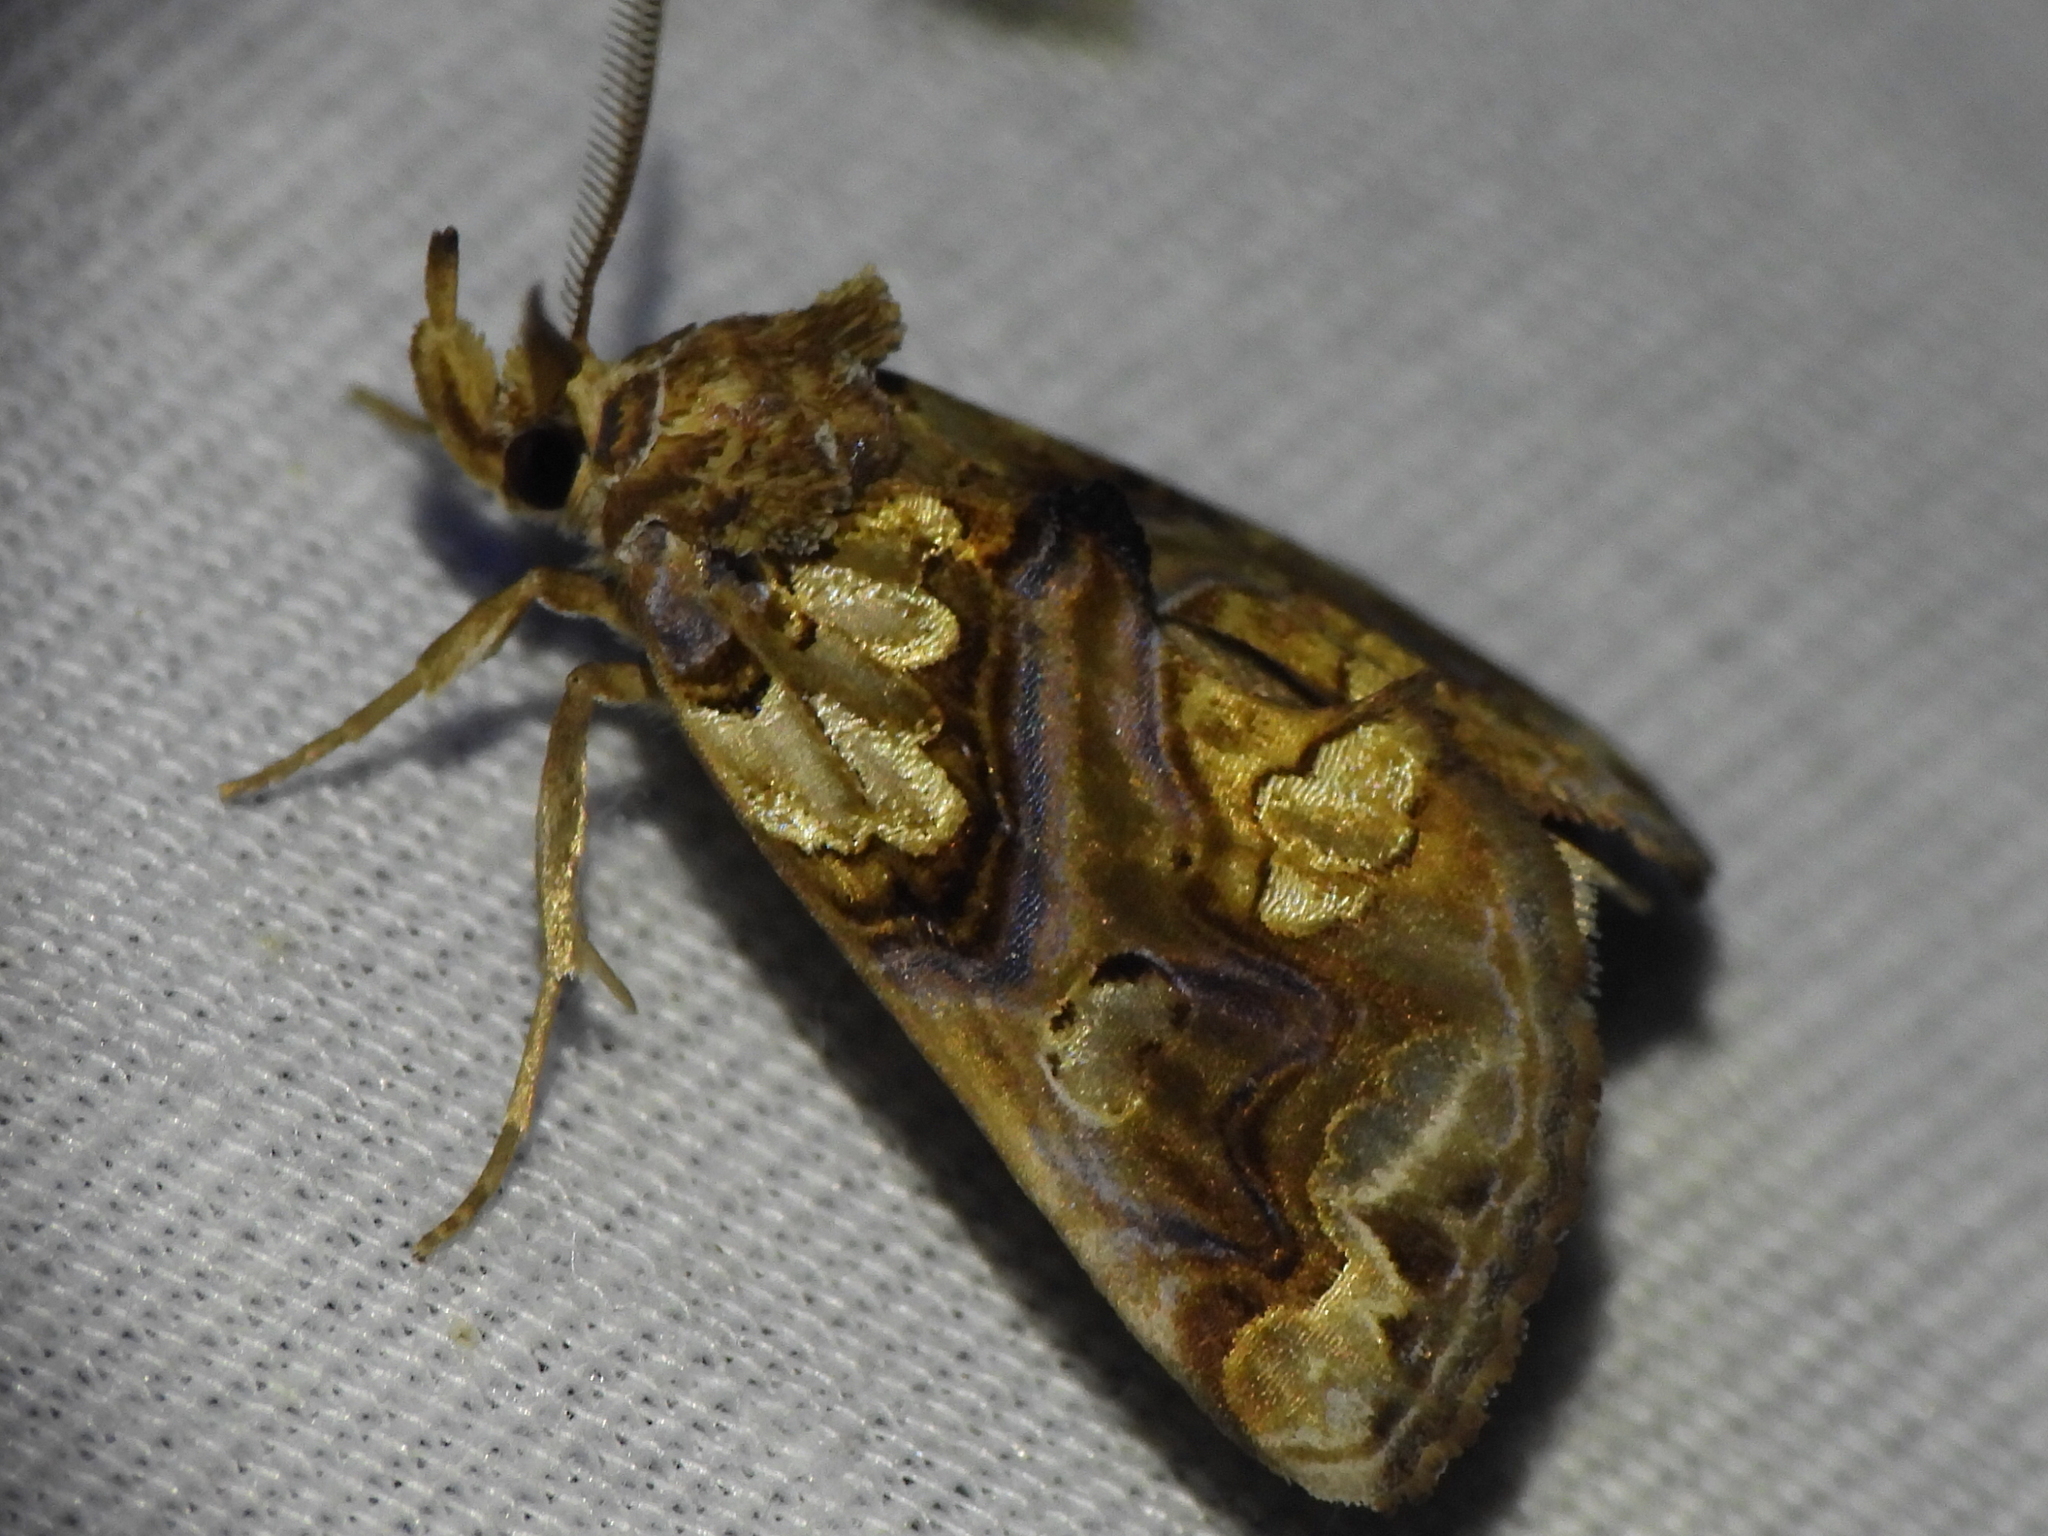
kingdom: Animalia
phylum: Arthropoda
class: Insecta
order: Lepidoptera
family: Erebidae
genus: Plusiodonta
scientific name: Plusiodonta compressipalpis
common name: Moonseed moth
